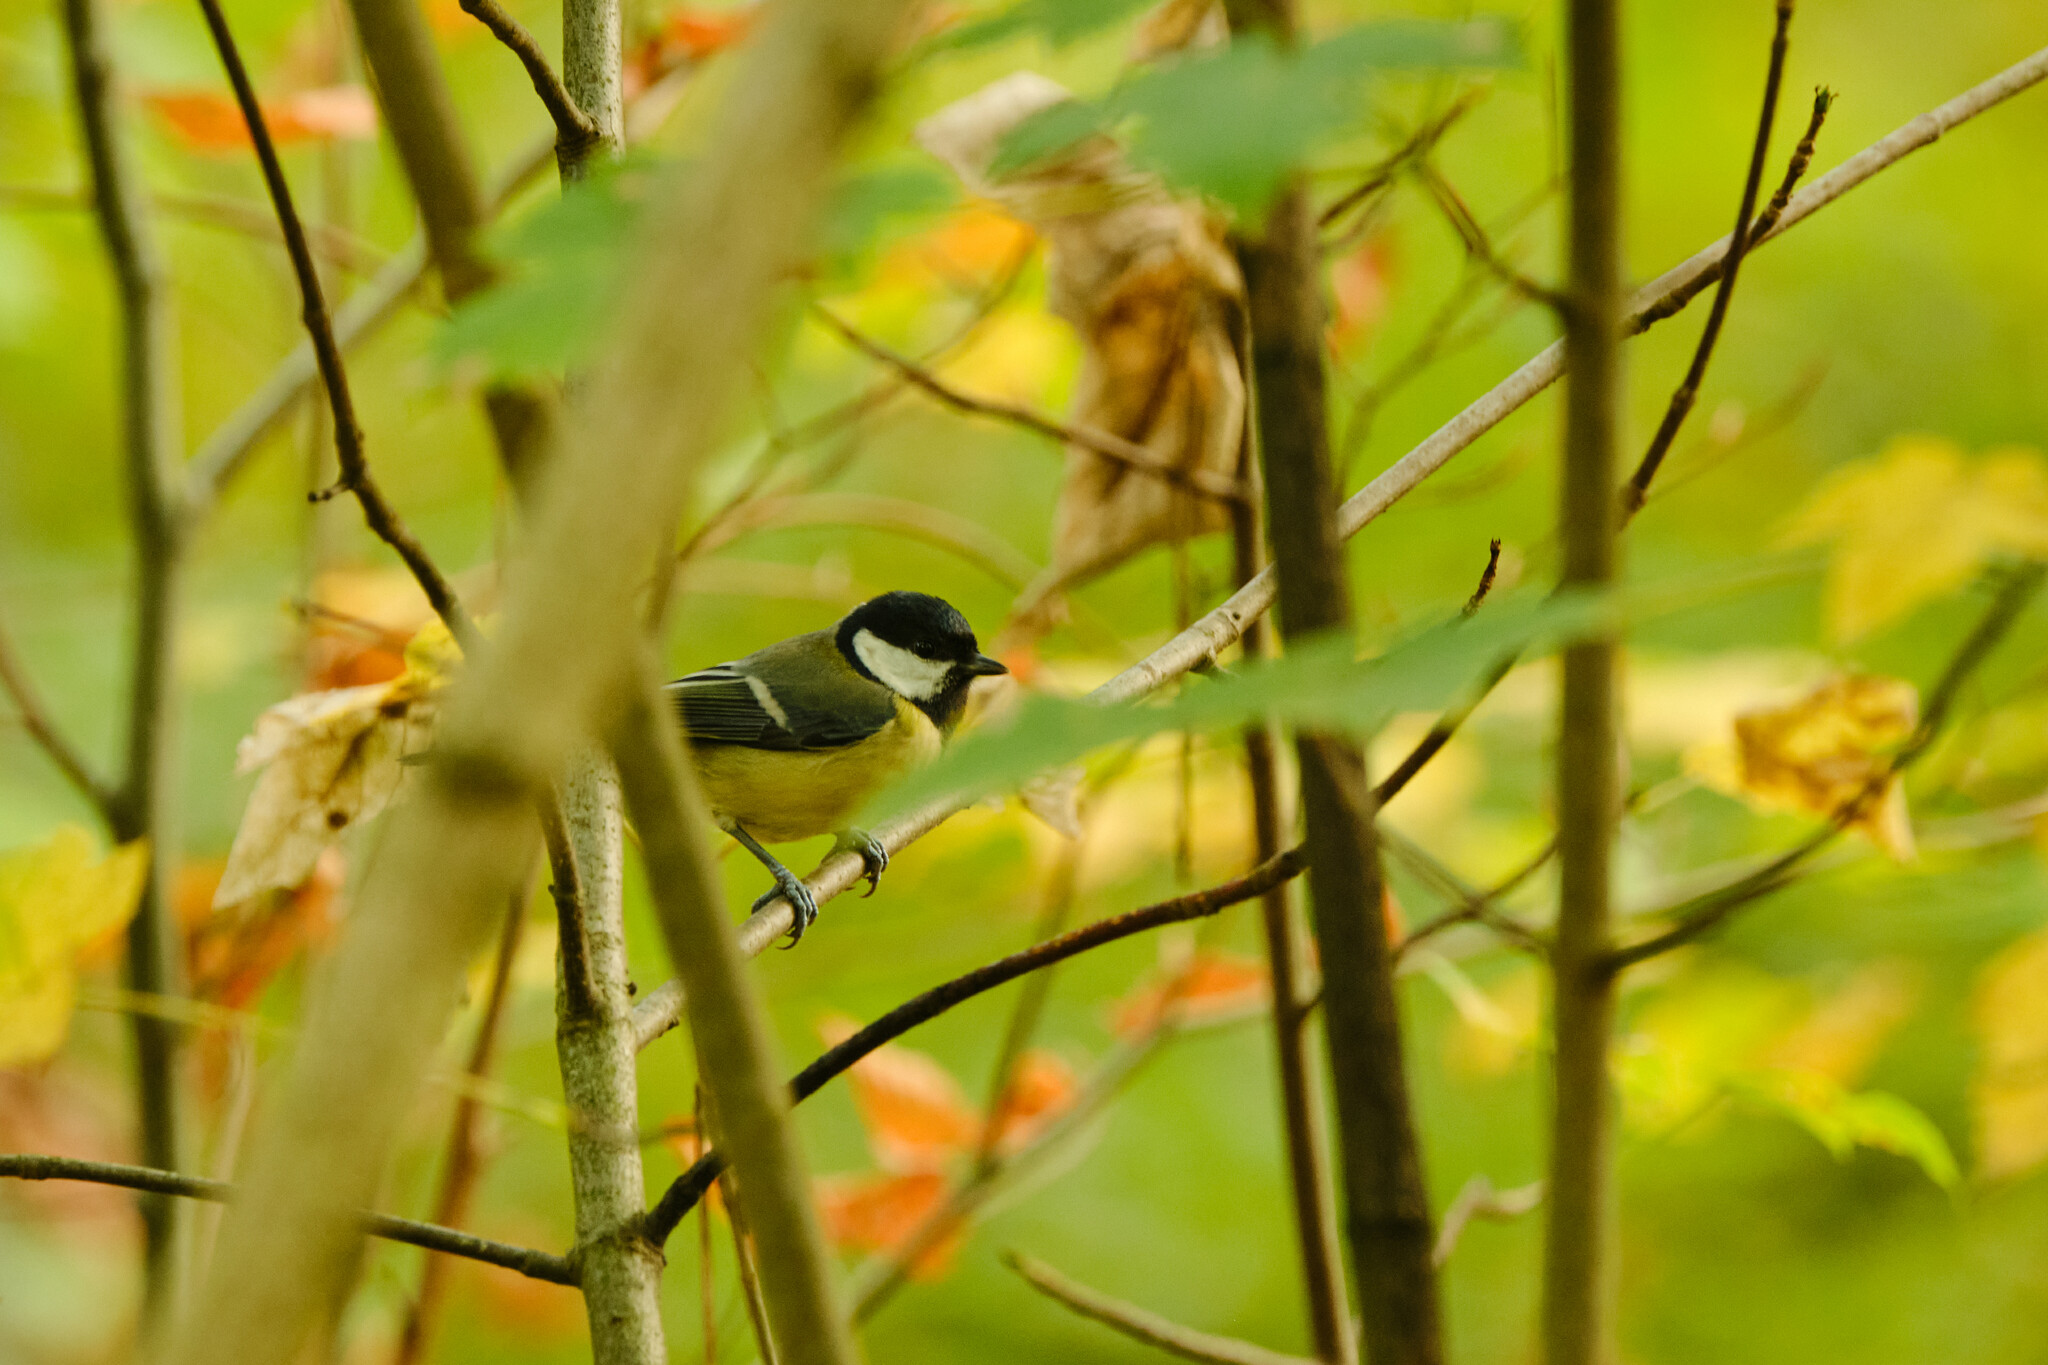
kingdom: Animalia
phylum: Chordata
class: Aves
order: Passeriformes
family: Paridae
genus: Parus
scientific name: Parus major
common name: Great tit
